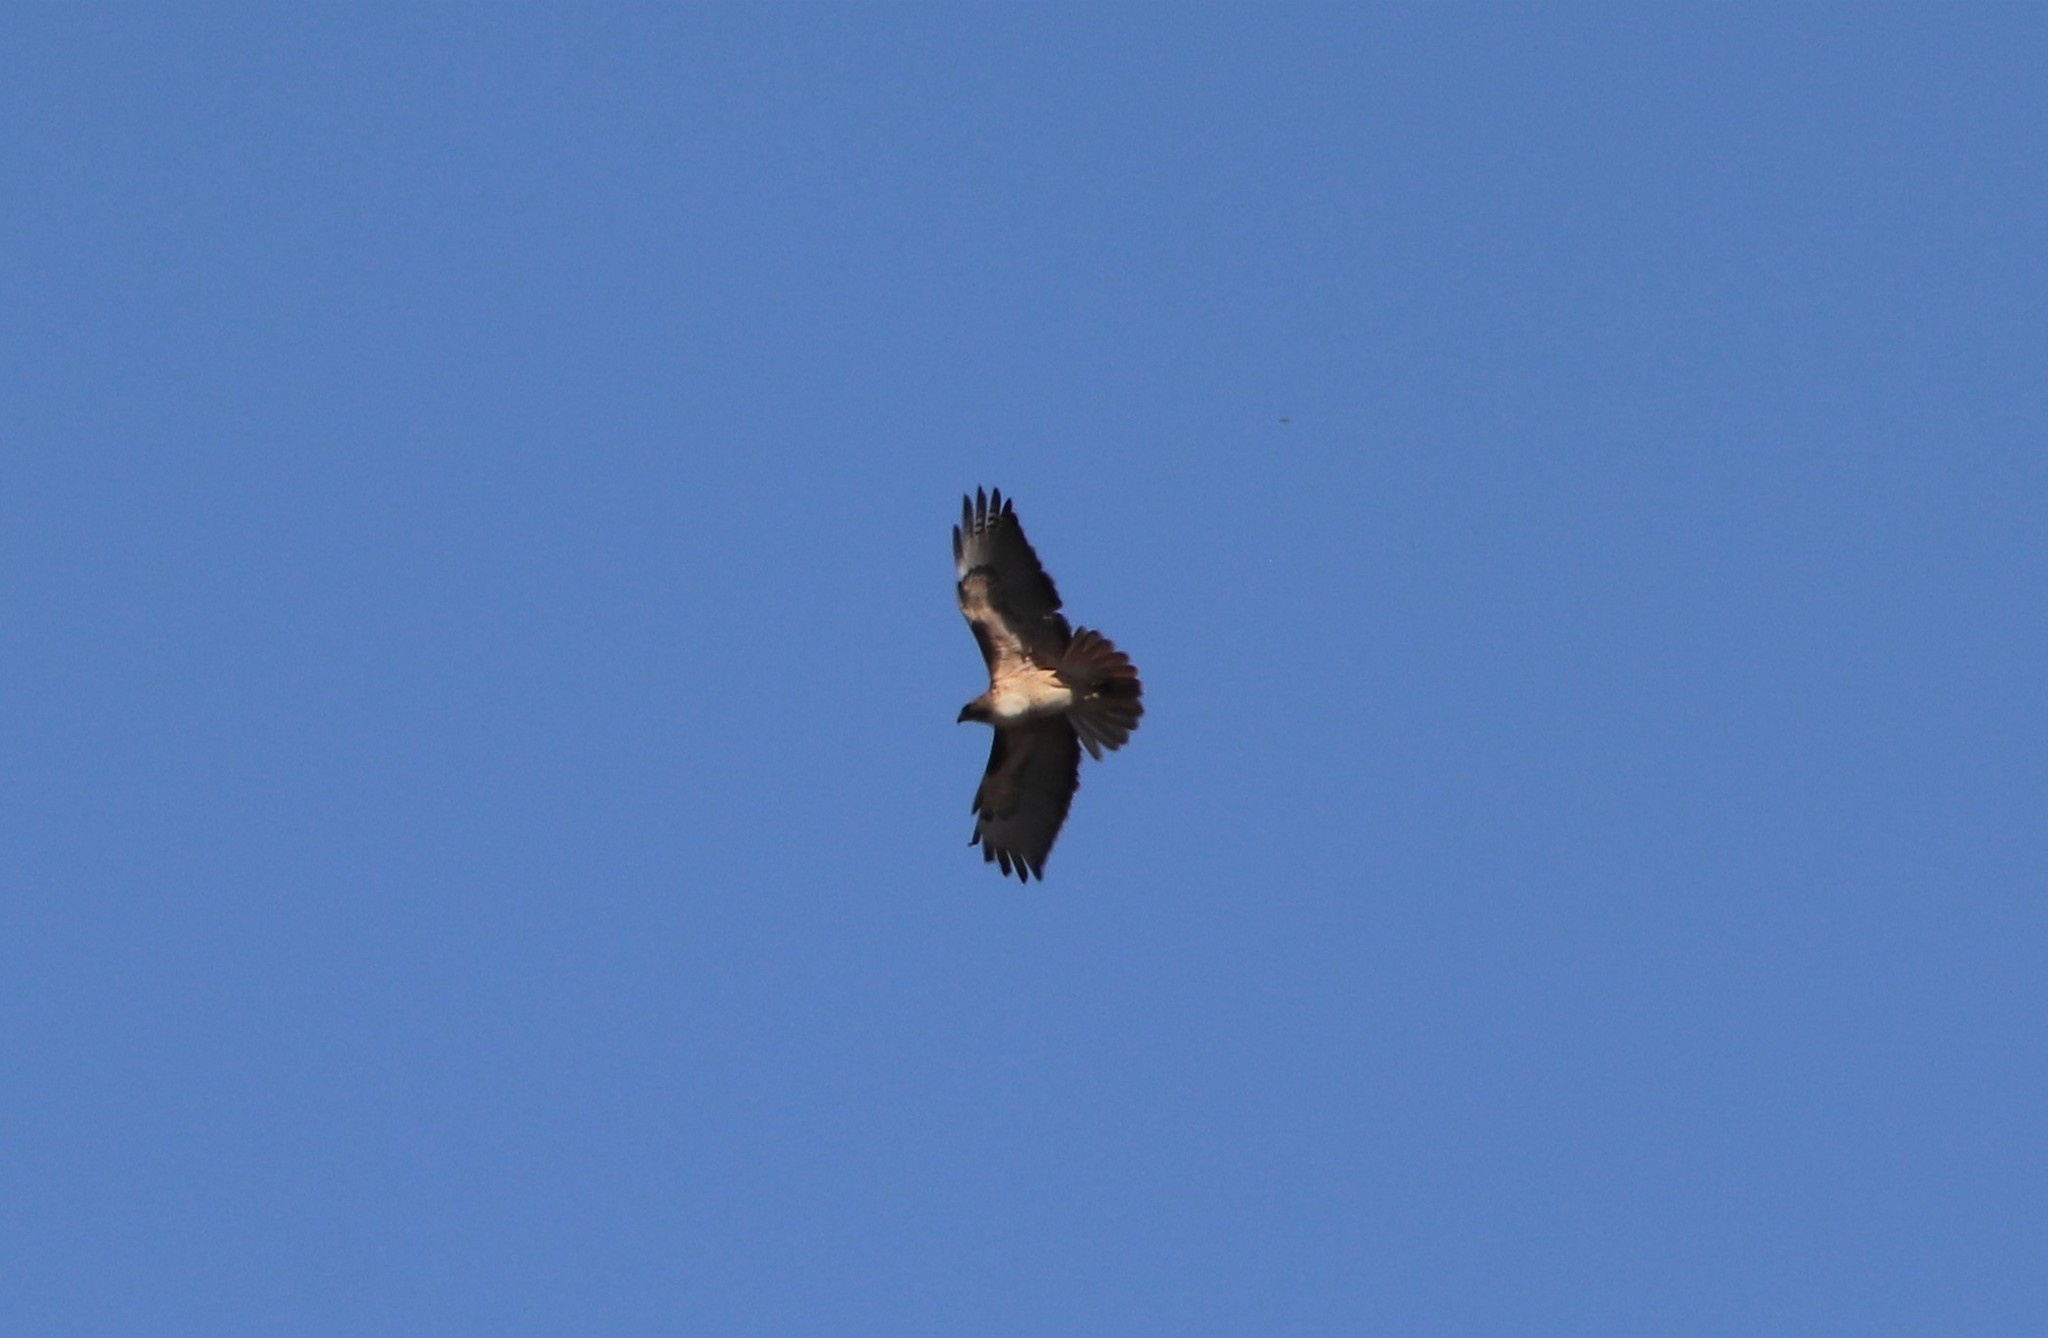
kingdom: Animalia
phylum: Chordata
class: Aves
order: Accipitriformes
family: Accipitridae
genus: Buteo
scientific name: Buteo jamaicensis
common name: Red-tailed hawk
